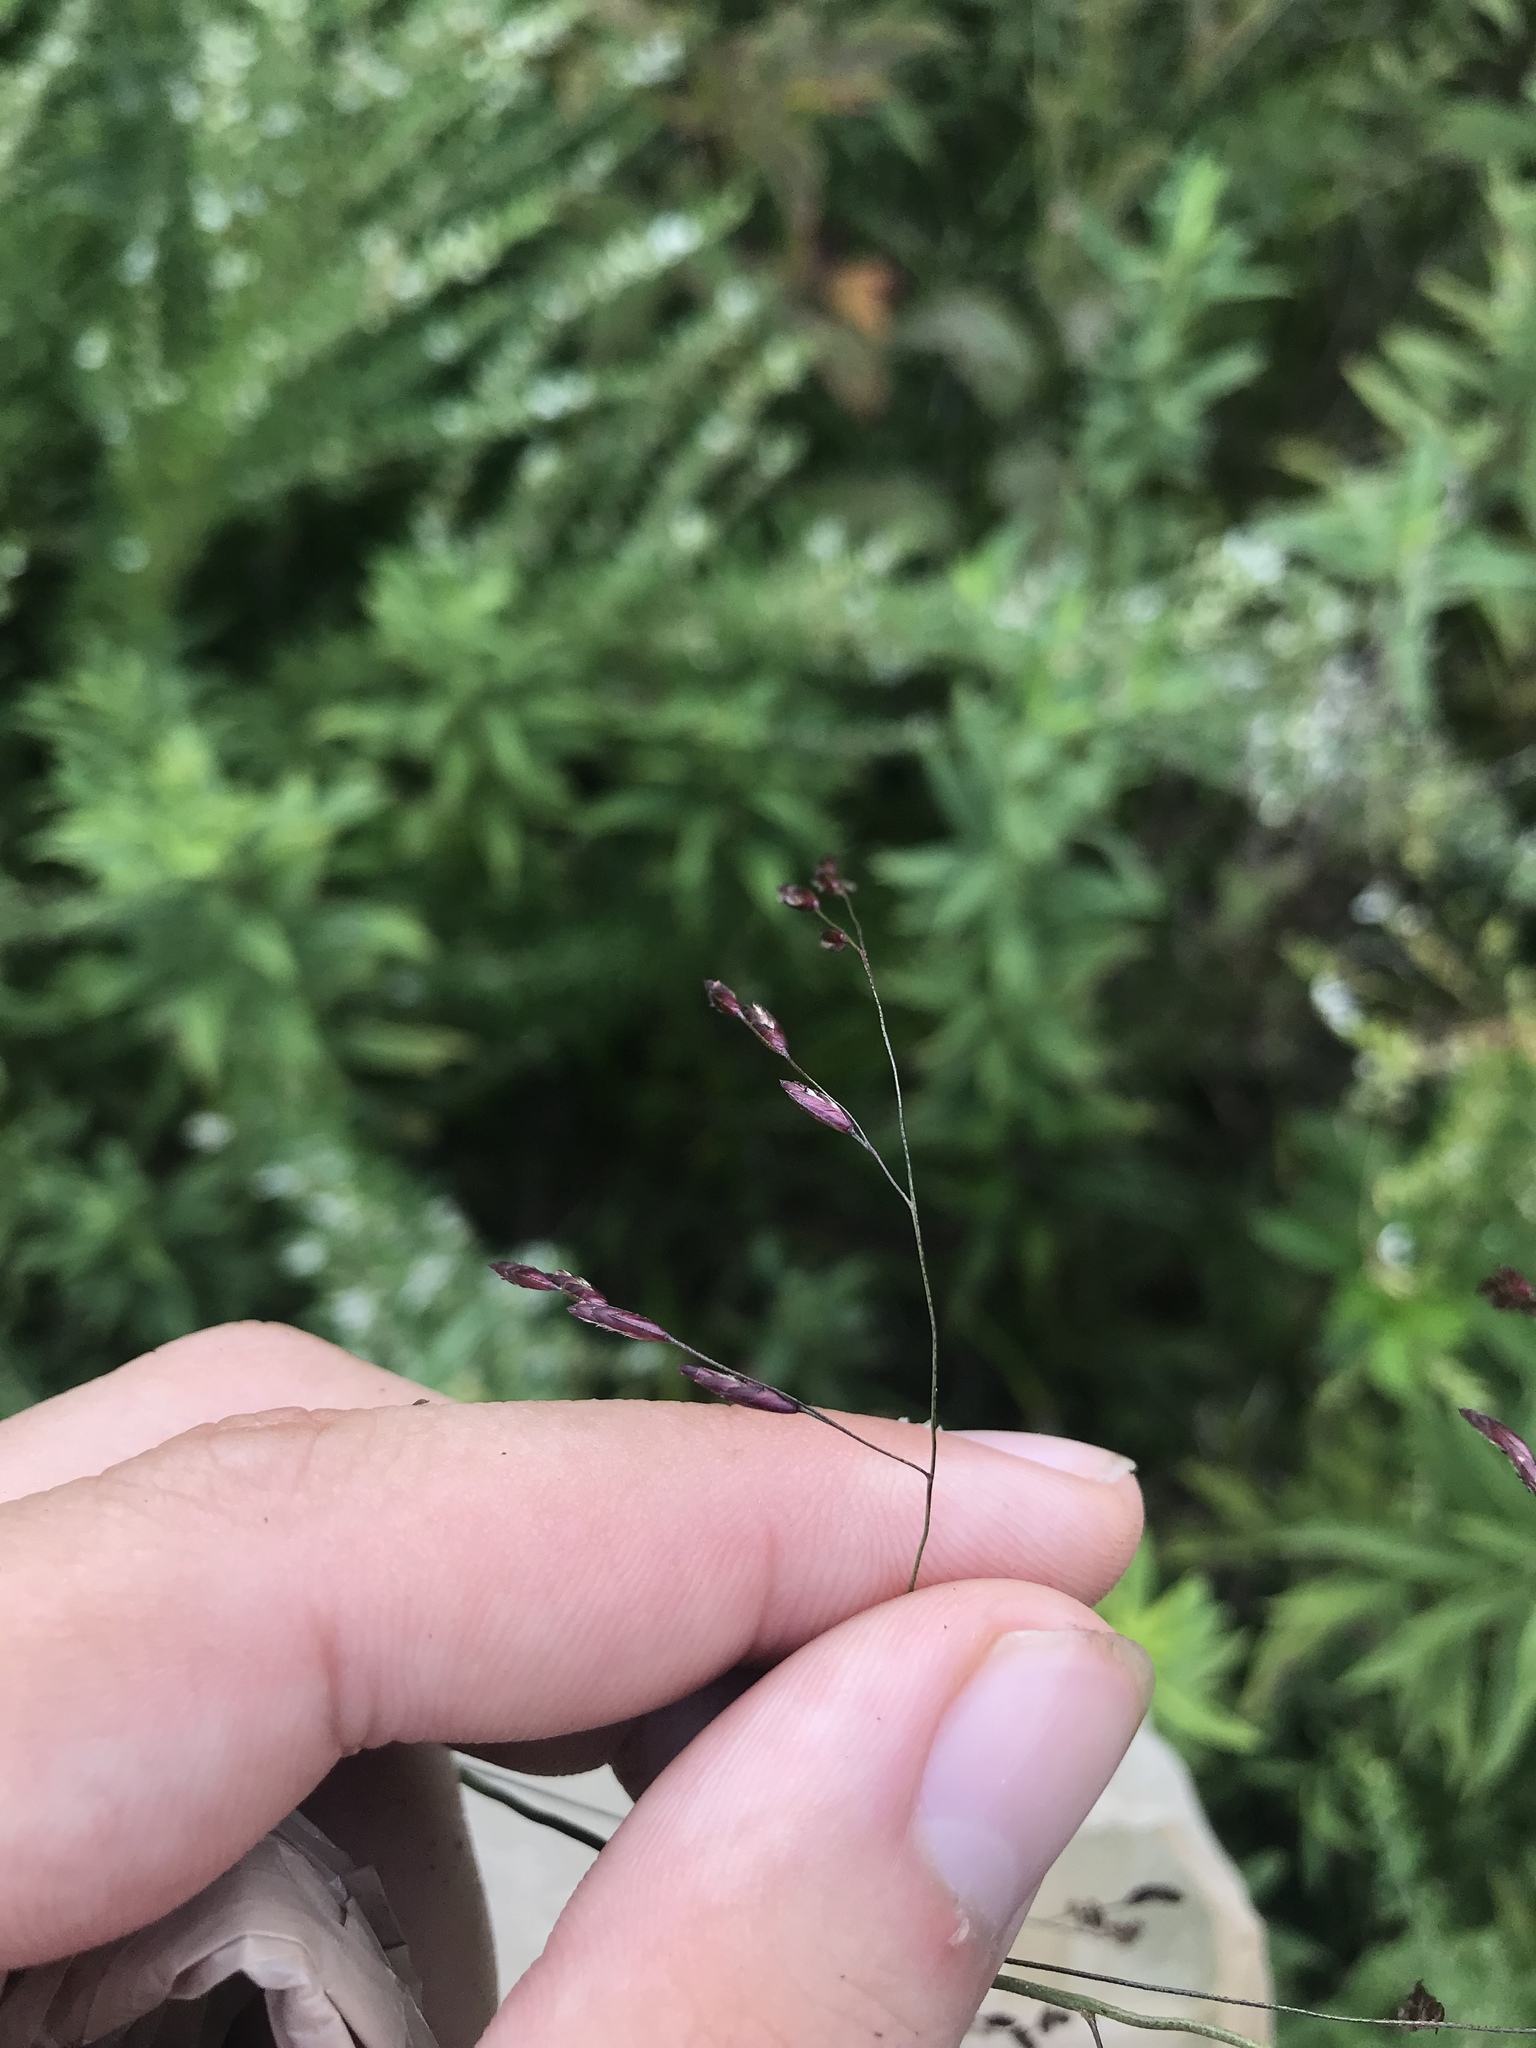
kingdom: Plantae
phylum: Tracheophyta
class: Liliopsida
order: Poales
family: Poaceae
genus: Tridens
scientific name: Tridens flavus
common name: Purpletop
